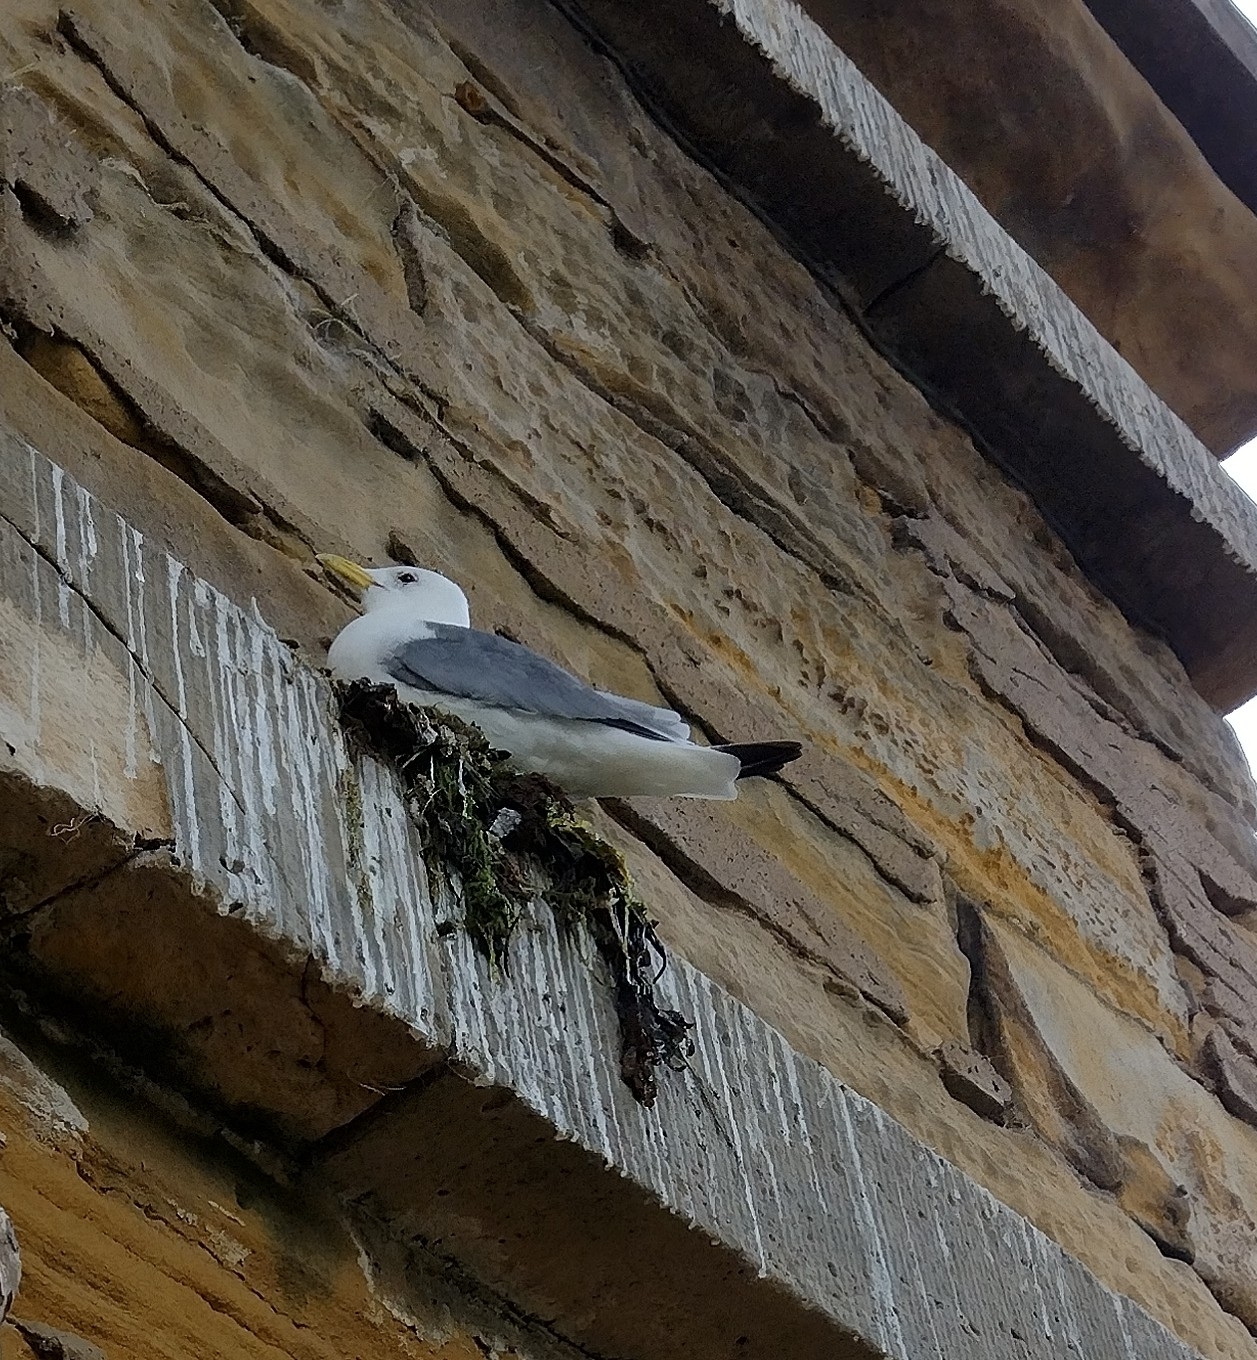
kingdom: Animalia
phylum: Chordata
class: Aves
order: Charadriiformes
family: Laridae
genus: Rissa
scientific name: Rissa tridactyla
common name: Black-legged kittiwake
